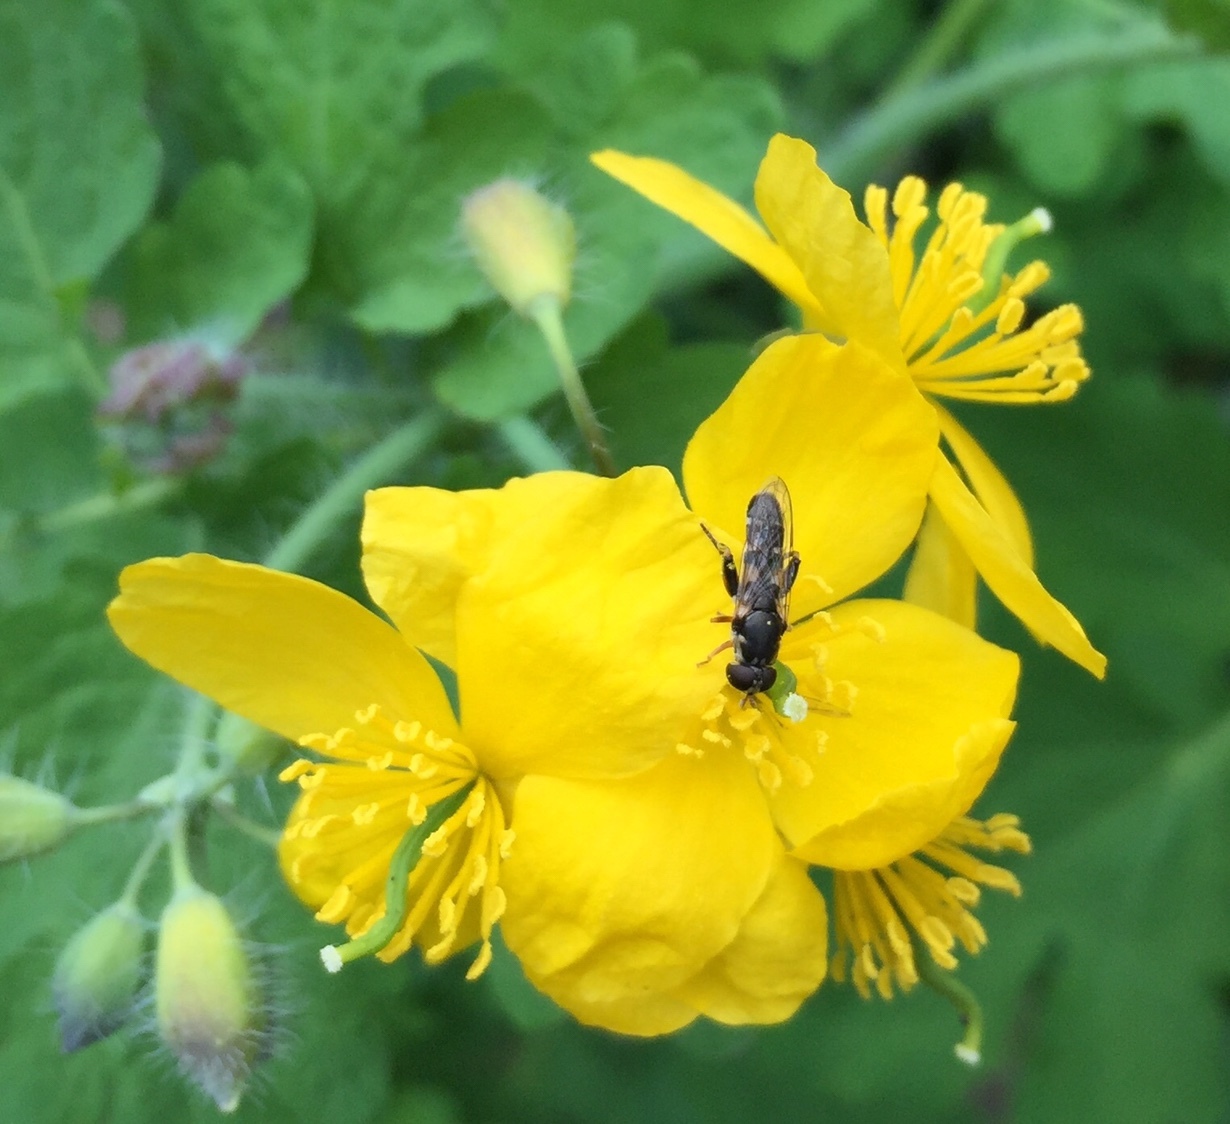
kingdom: Animalia
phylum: Arthropoda
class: Insecta
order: Diptera
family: Syrphidae
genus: Syritta
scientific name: Syritta pipiens
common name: Hover fly
